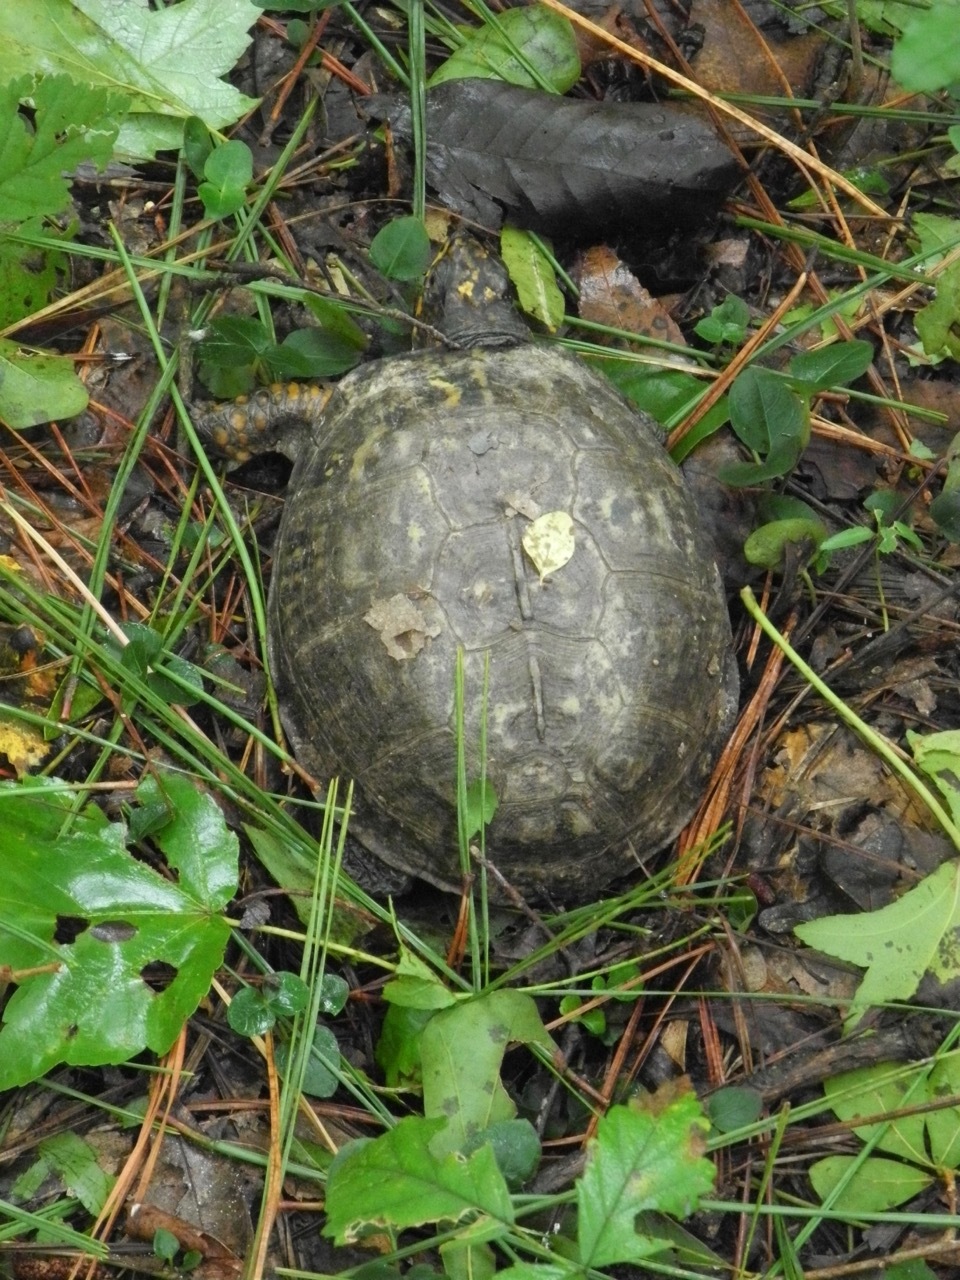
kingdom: Animalia
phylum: Chordata
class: Testudines
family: Emydidae
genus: Terrapene
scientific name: Terrapene carolina
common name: Common box turtle
